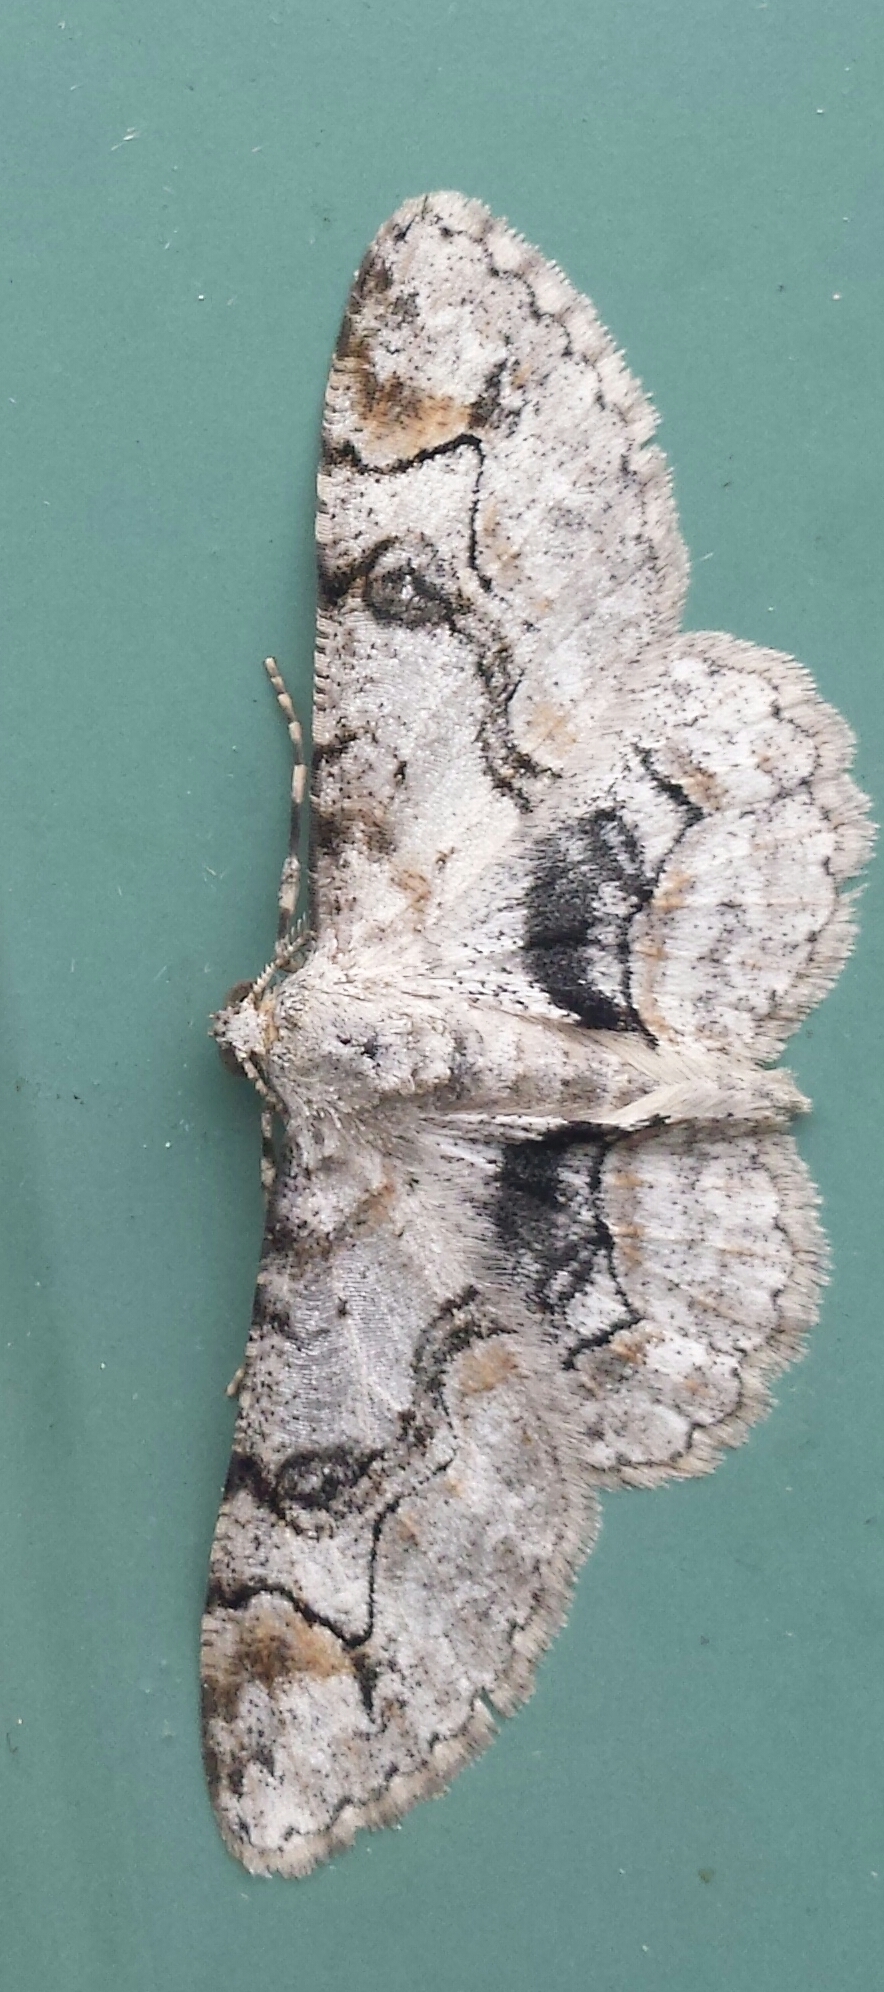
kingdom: Animalia
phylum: Arthropoda
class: Insecta
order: Lepidoptera
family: Geometridae
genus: Iridopsis
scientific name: Iridopsis larvaria
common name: Bent-line gray
